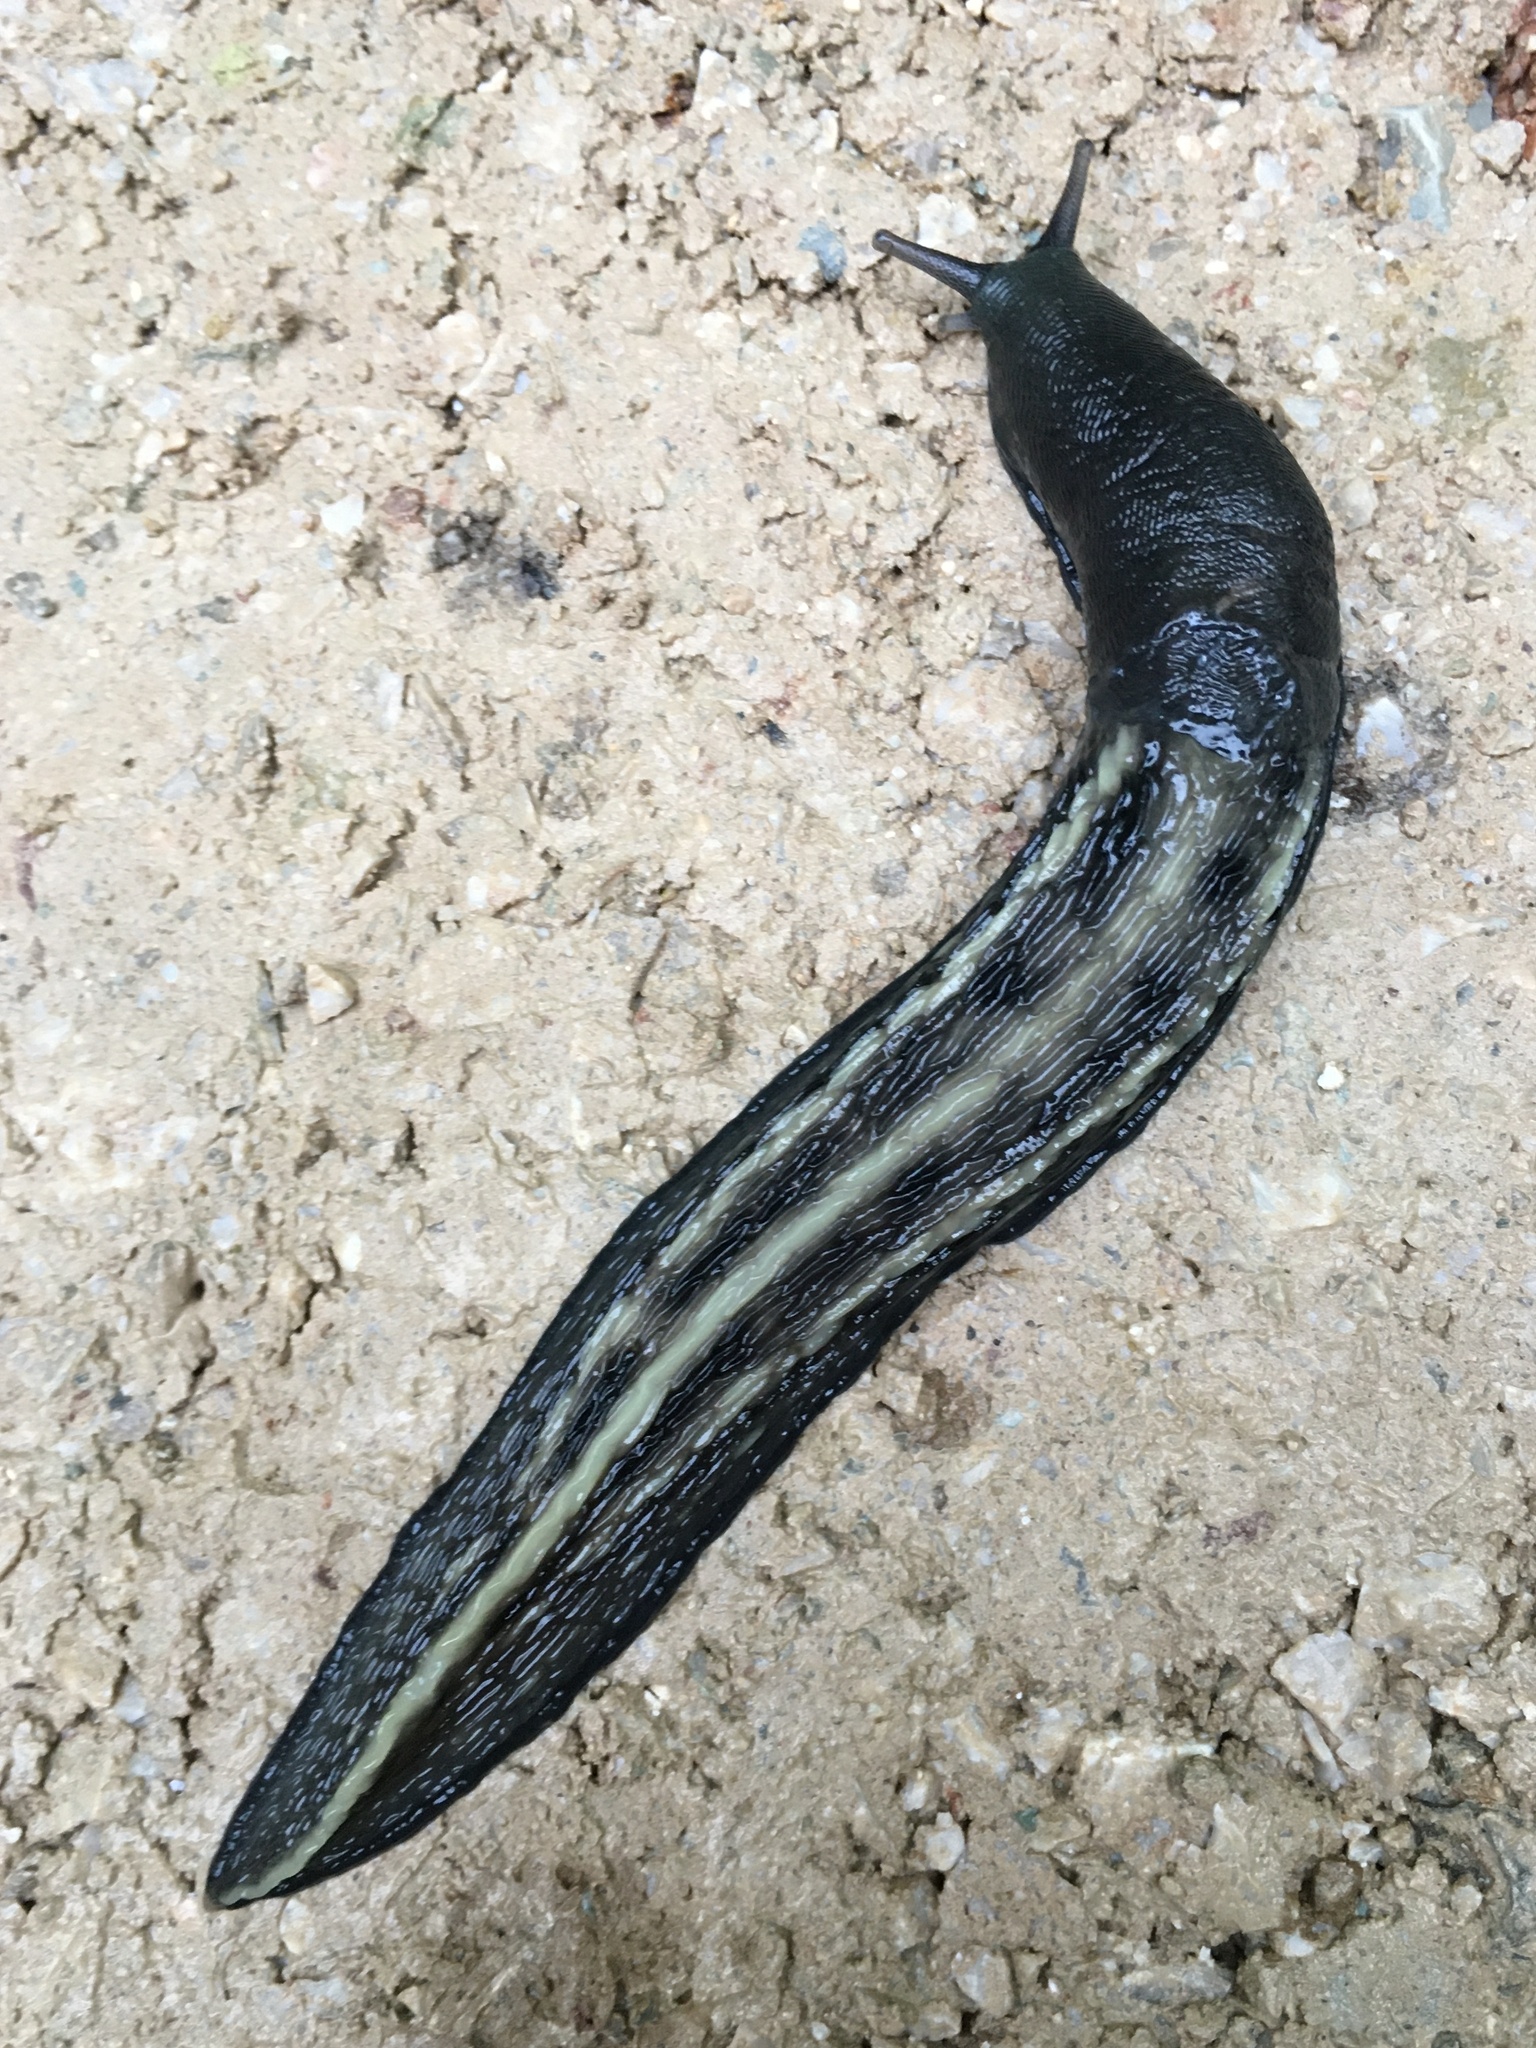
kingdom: Animalia
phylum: Mollusca
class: Gastropoda
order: Stylommatophora
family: Limacidae
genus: Limax
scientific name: Limax cinereoniger
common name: Ash-black slug
